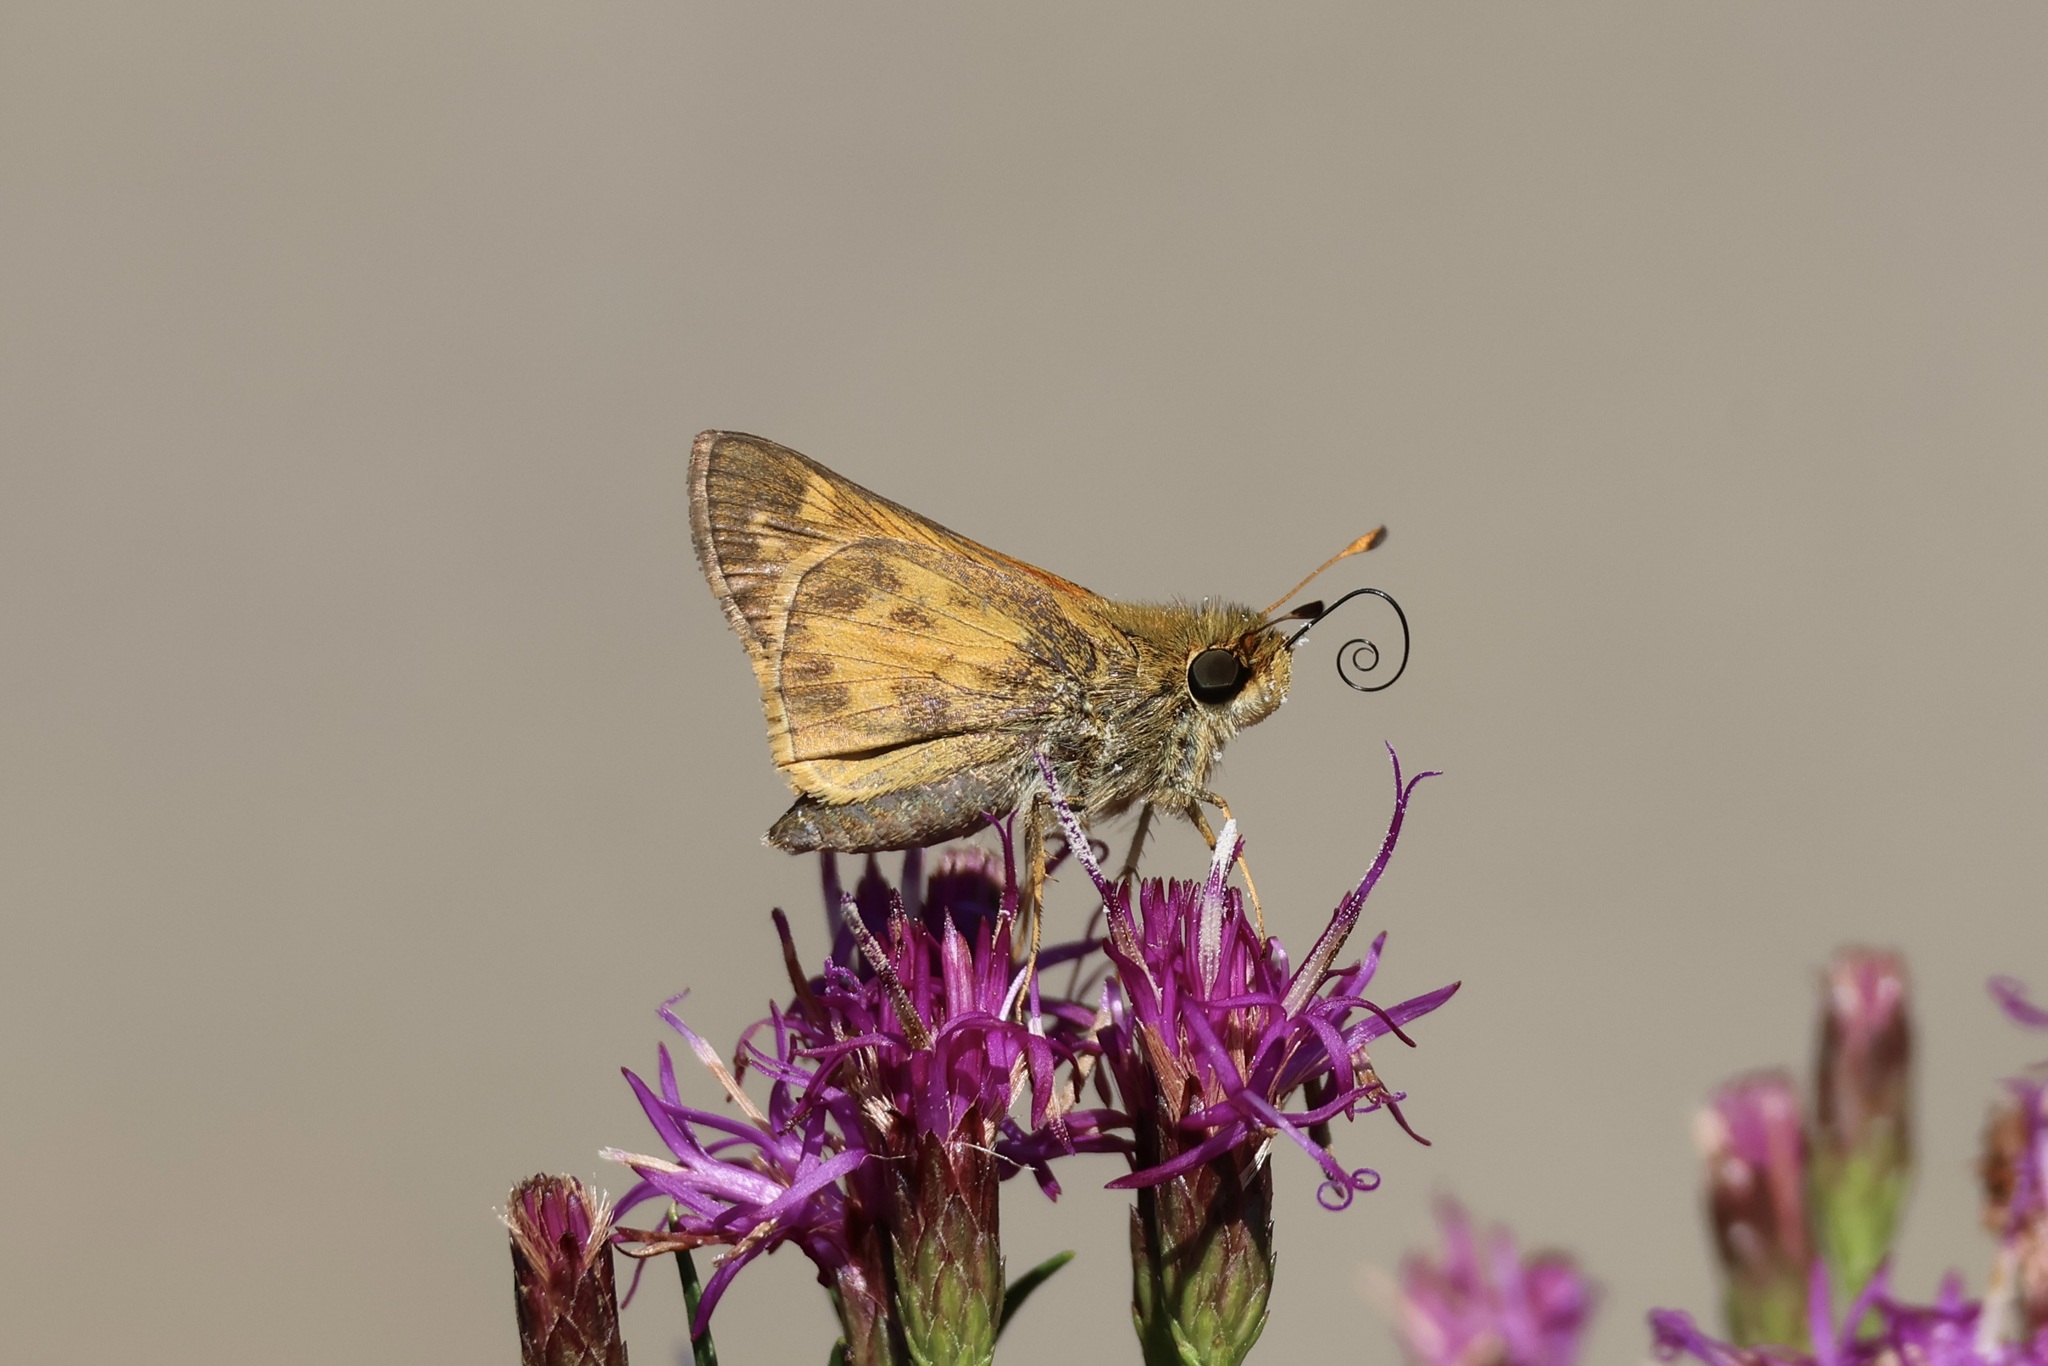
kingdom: Animalia
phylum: Arthropoda
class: Insecta
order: Lepidoptera
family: Hesperiidae
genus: Atalopedes
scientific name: Atalopedes
